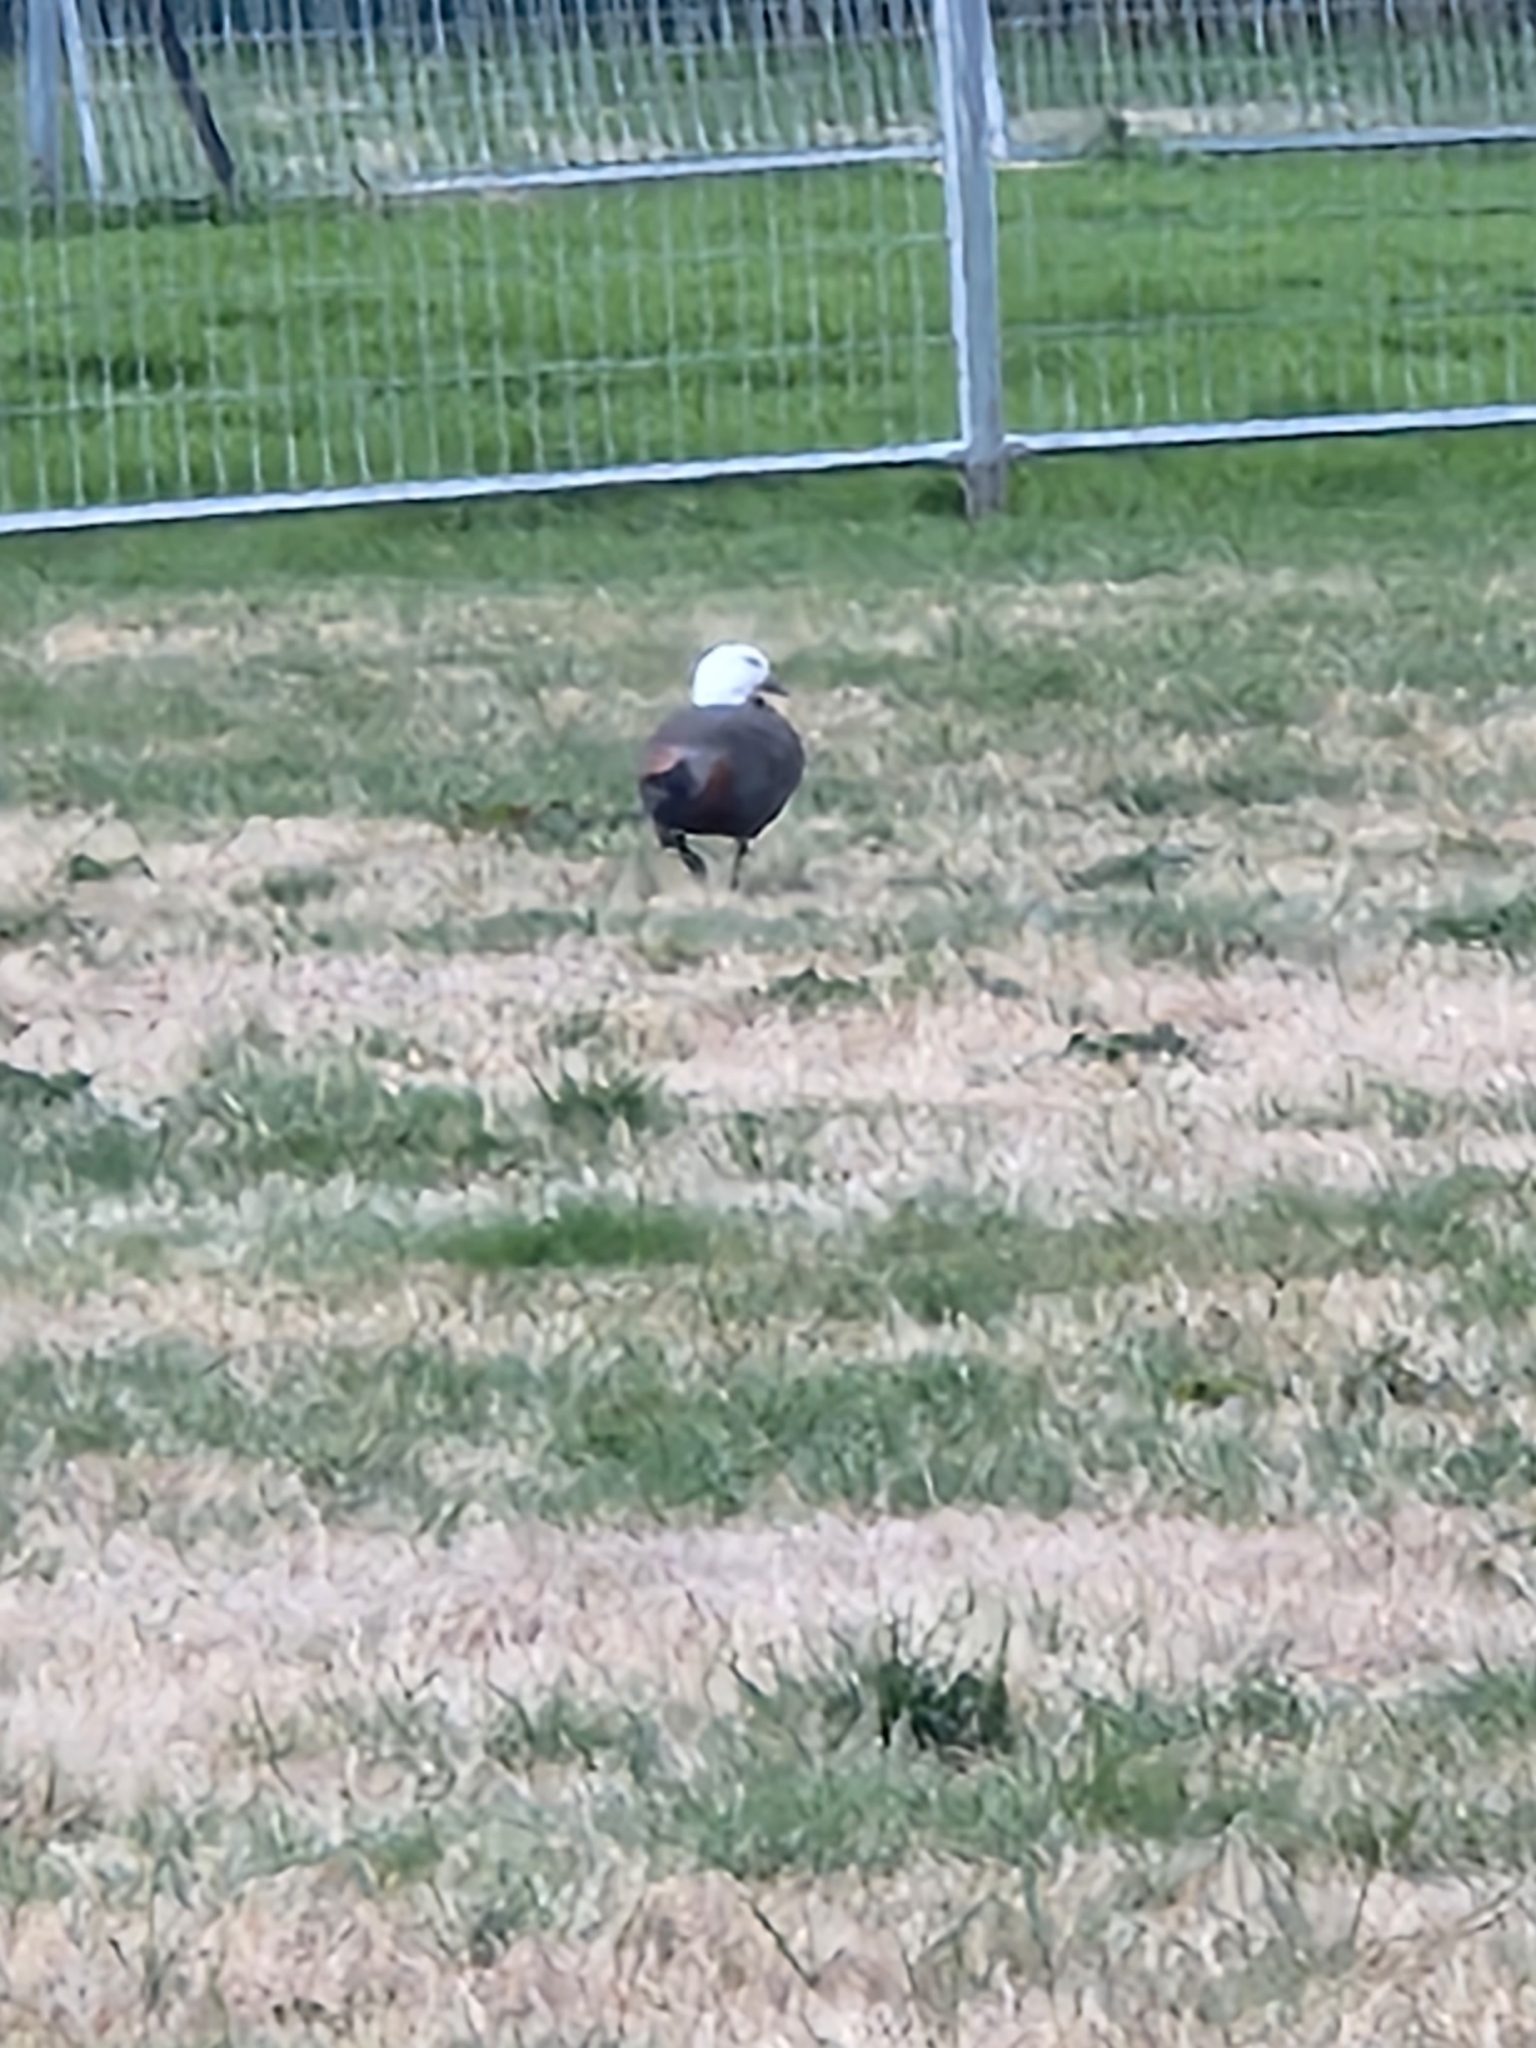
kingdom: Animalia
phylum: Chordata
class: Aves
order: Anseriformes
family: Anatidae
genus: Tadorna
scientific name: Tadorna variegata
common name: Paradise shelduck
